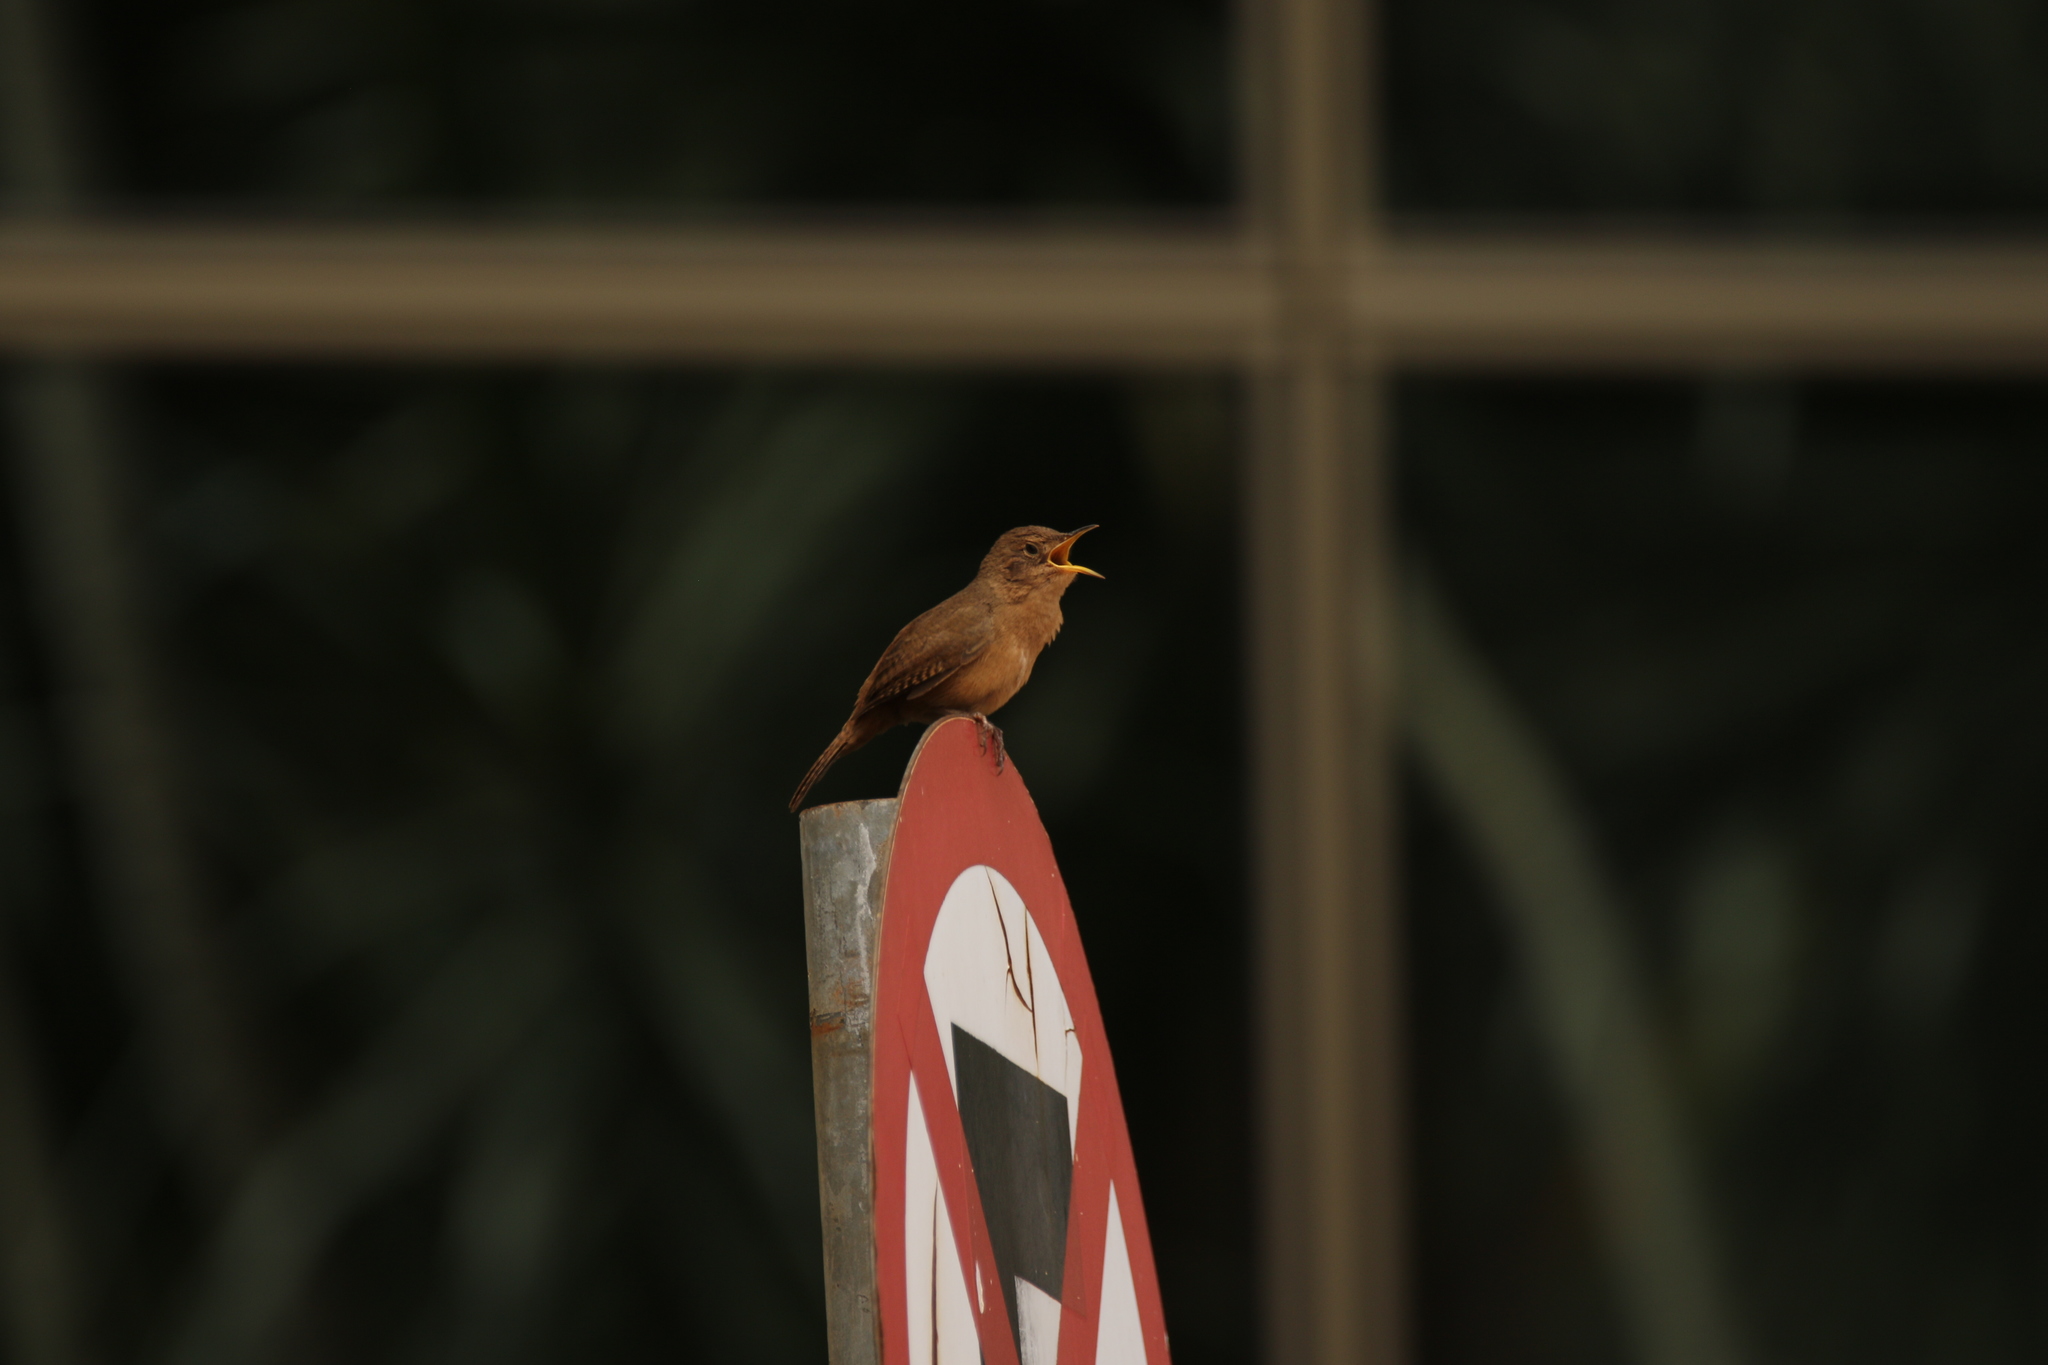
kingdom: Animalia
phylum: Chordata
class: Aves
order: Passeriformes
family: Troglodytidae
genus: Troglodytes
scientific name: Troglodytes aedon
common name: House wren
